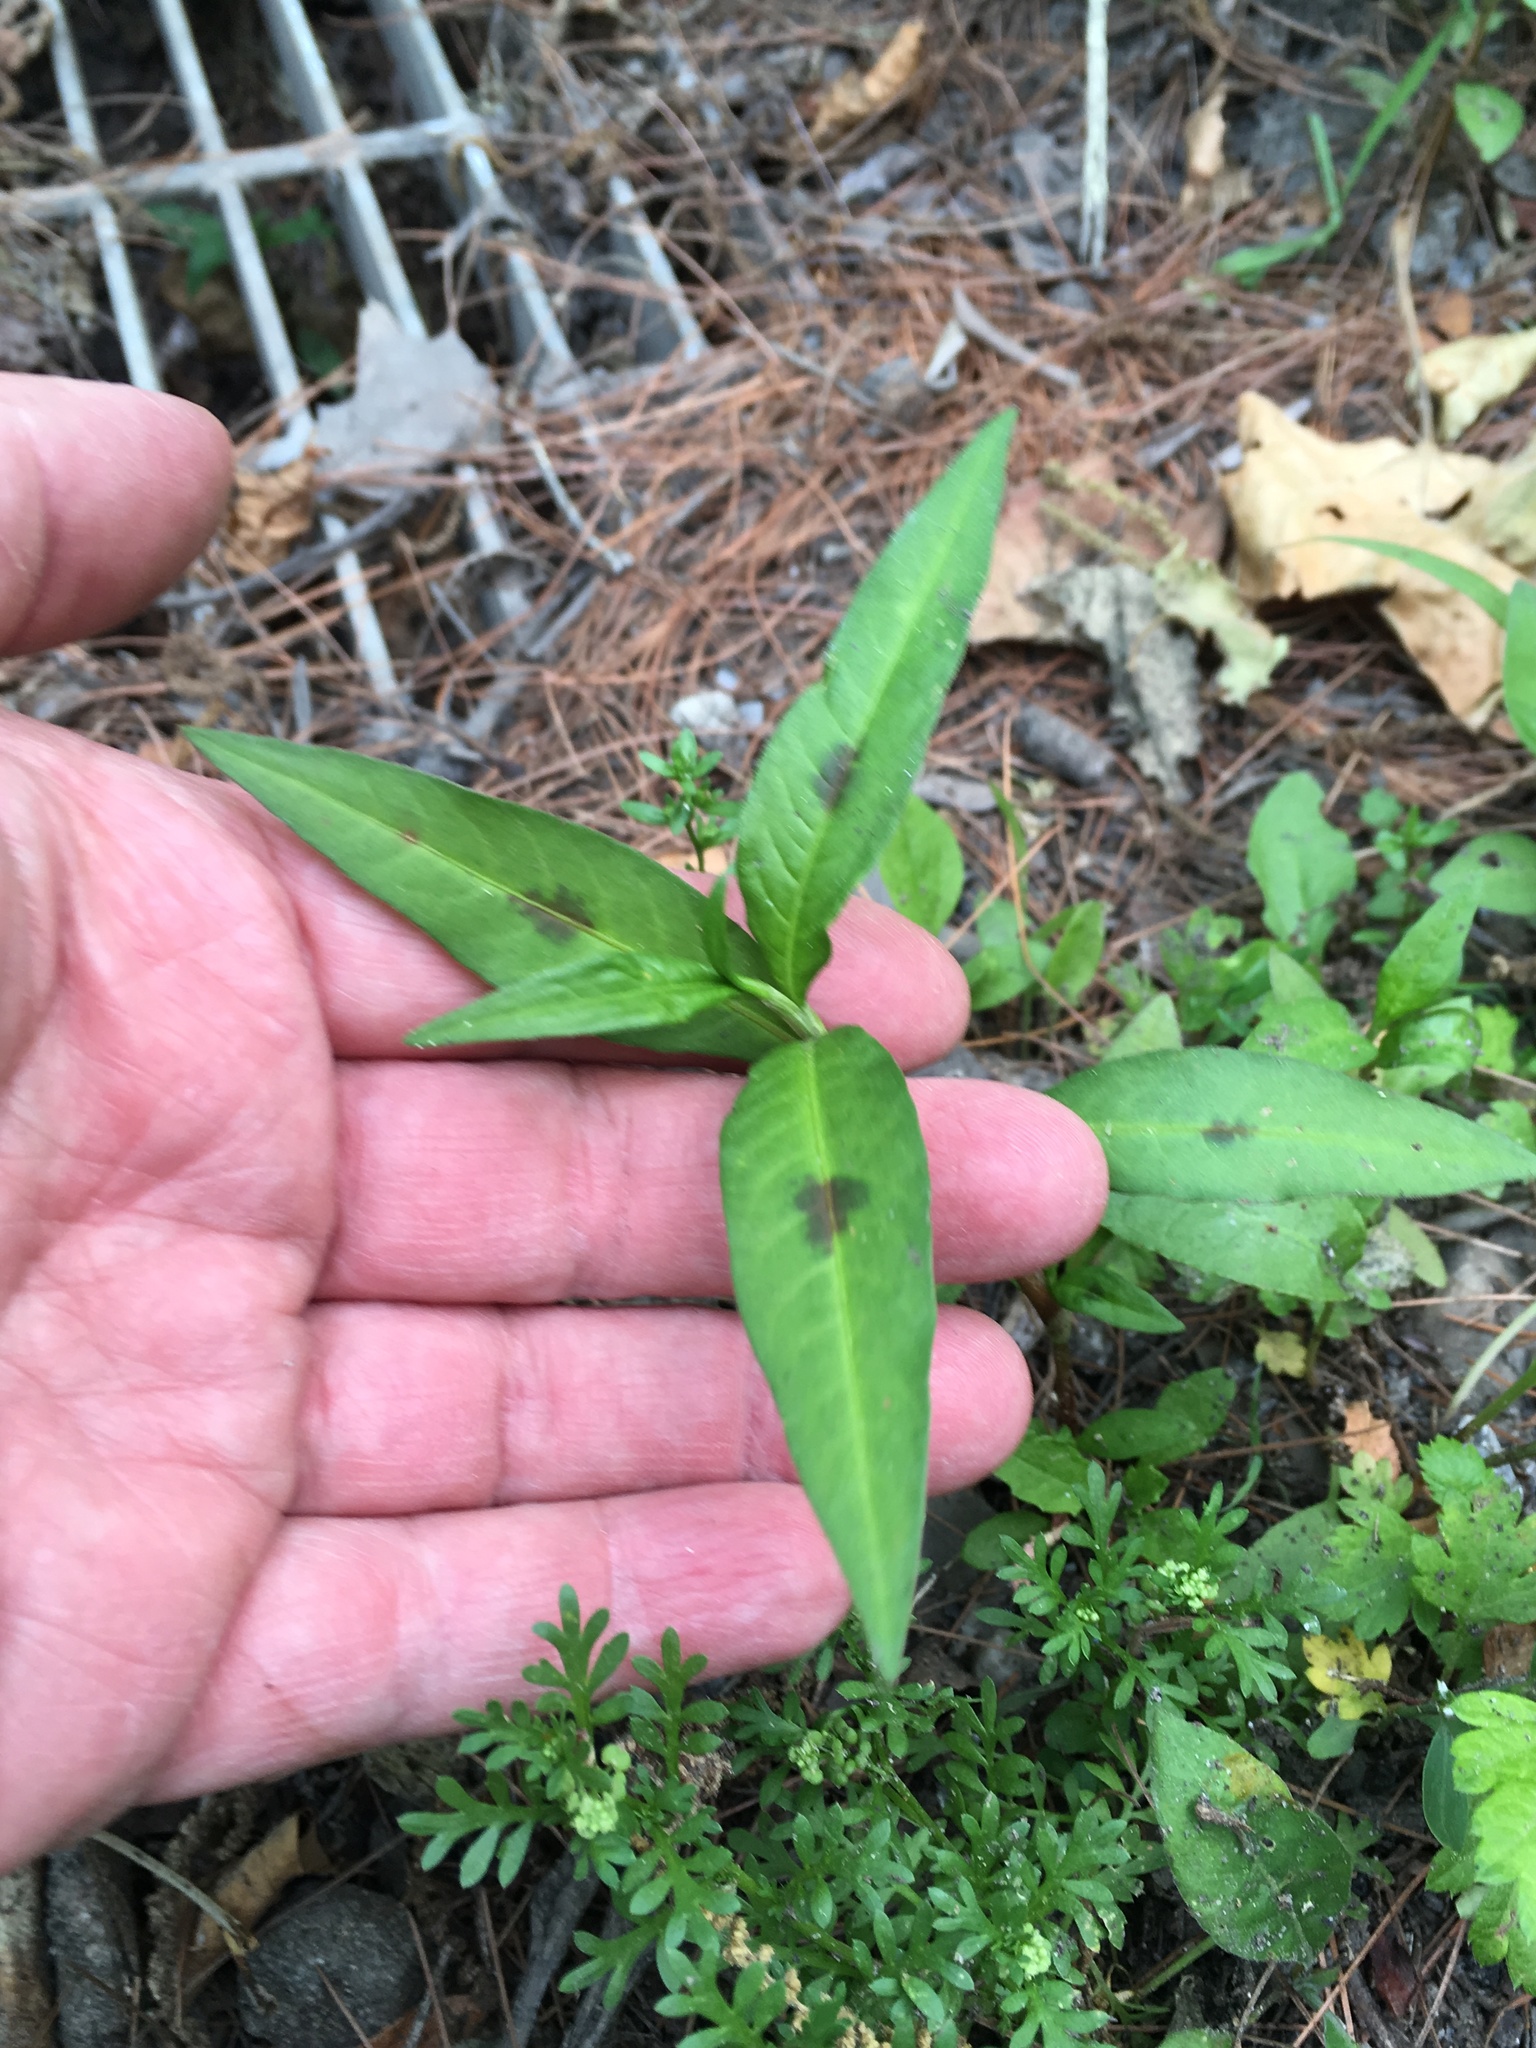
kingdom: Plantae
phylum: Tracheophyta
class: Magnoliopsida
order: Caryophyllales
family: Polygonaceae
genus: Persicaria
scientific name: Persicaria maculosa
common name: Redshank
